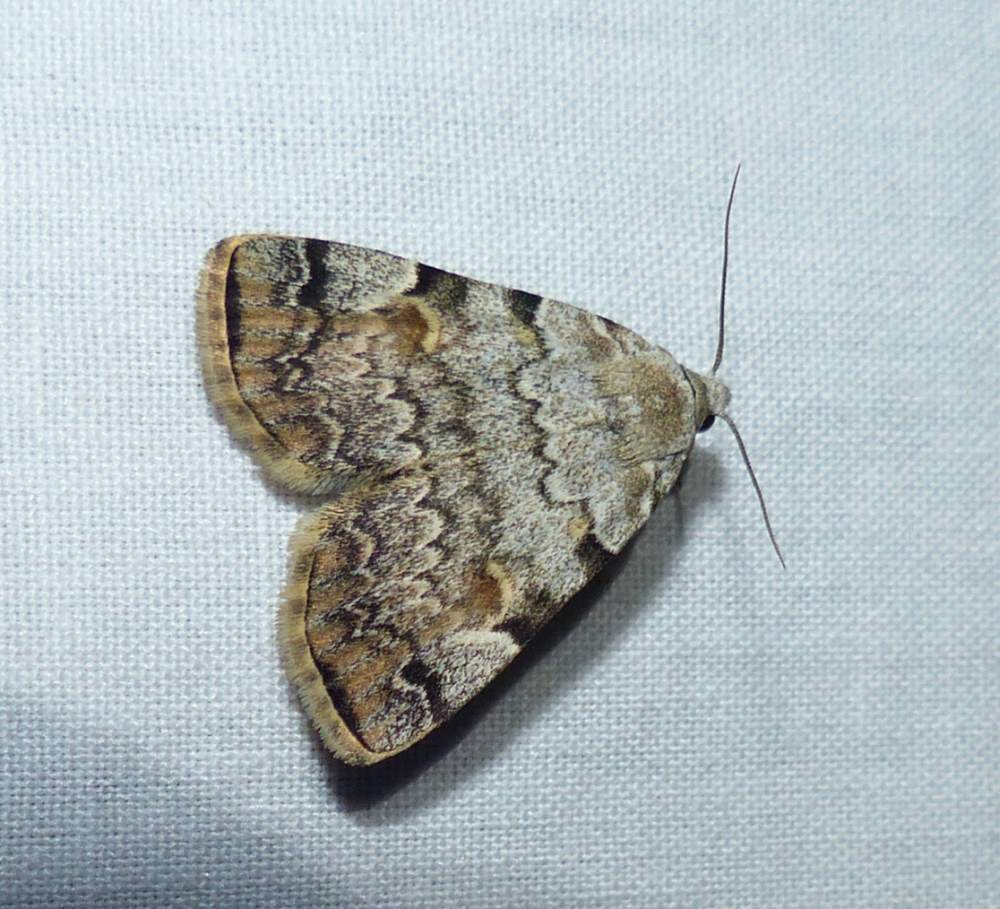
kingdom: Animalia
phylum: Arthropoda
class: Insecta
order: Lepidoptera
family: Erebidae
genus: Idia
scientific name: Idia americalis
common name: American idia moth
